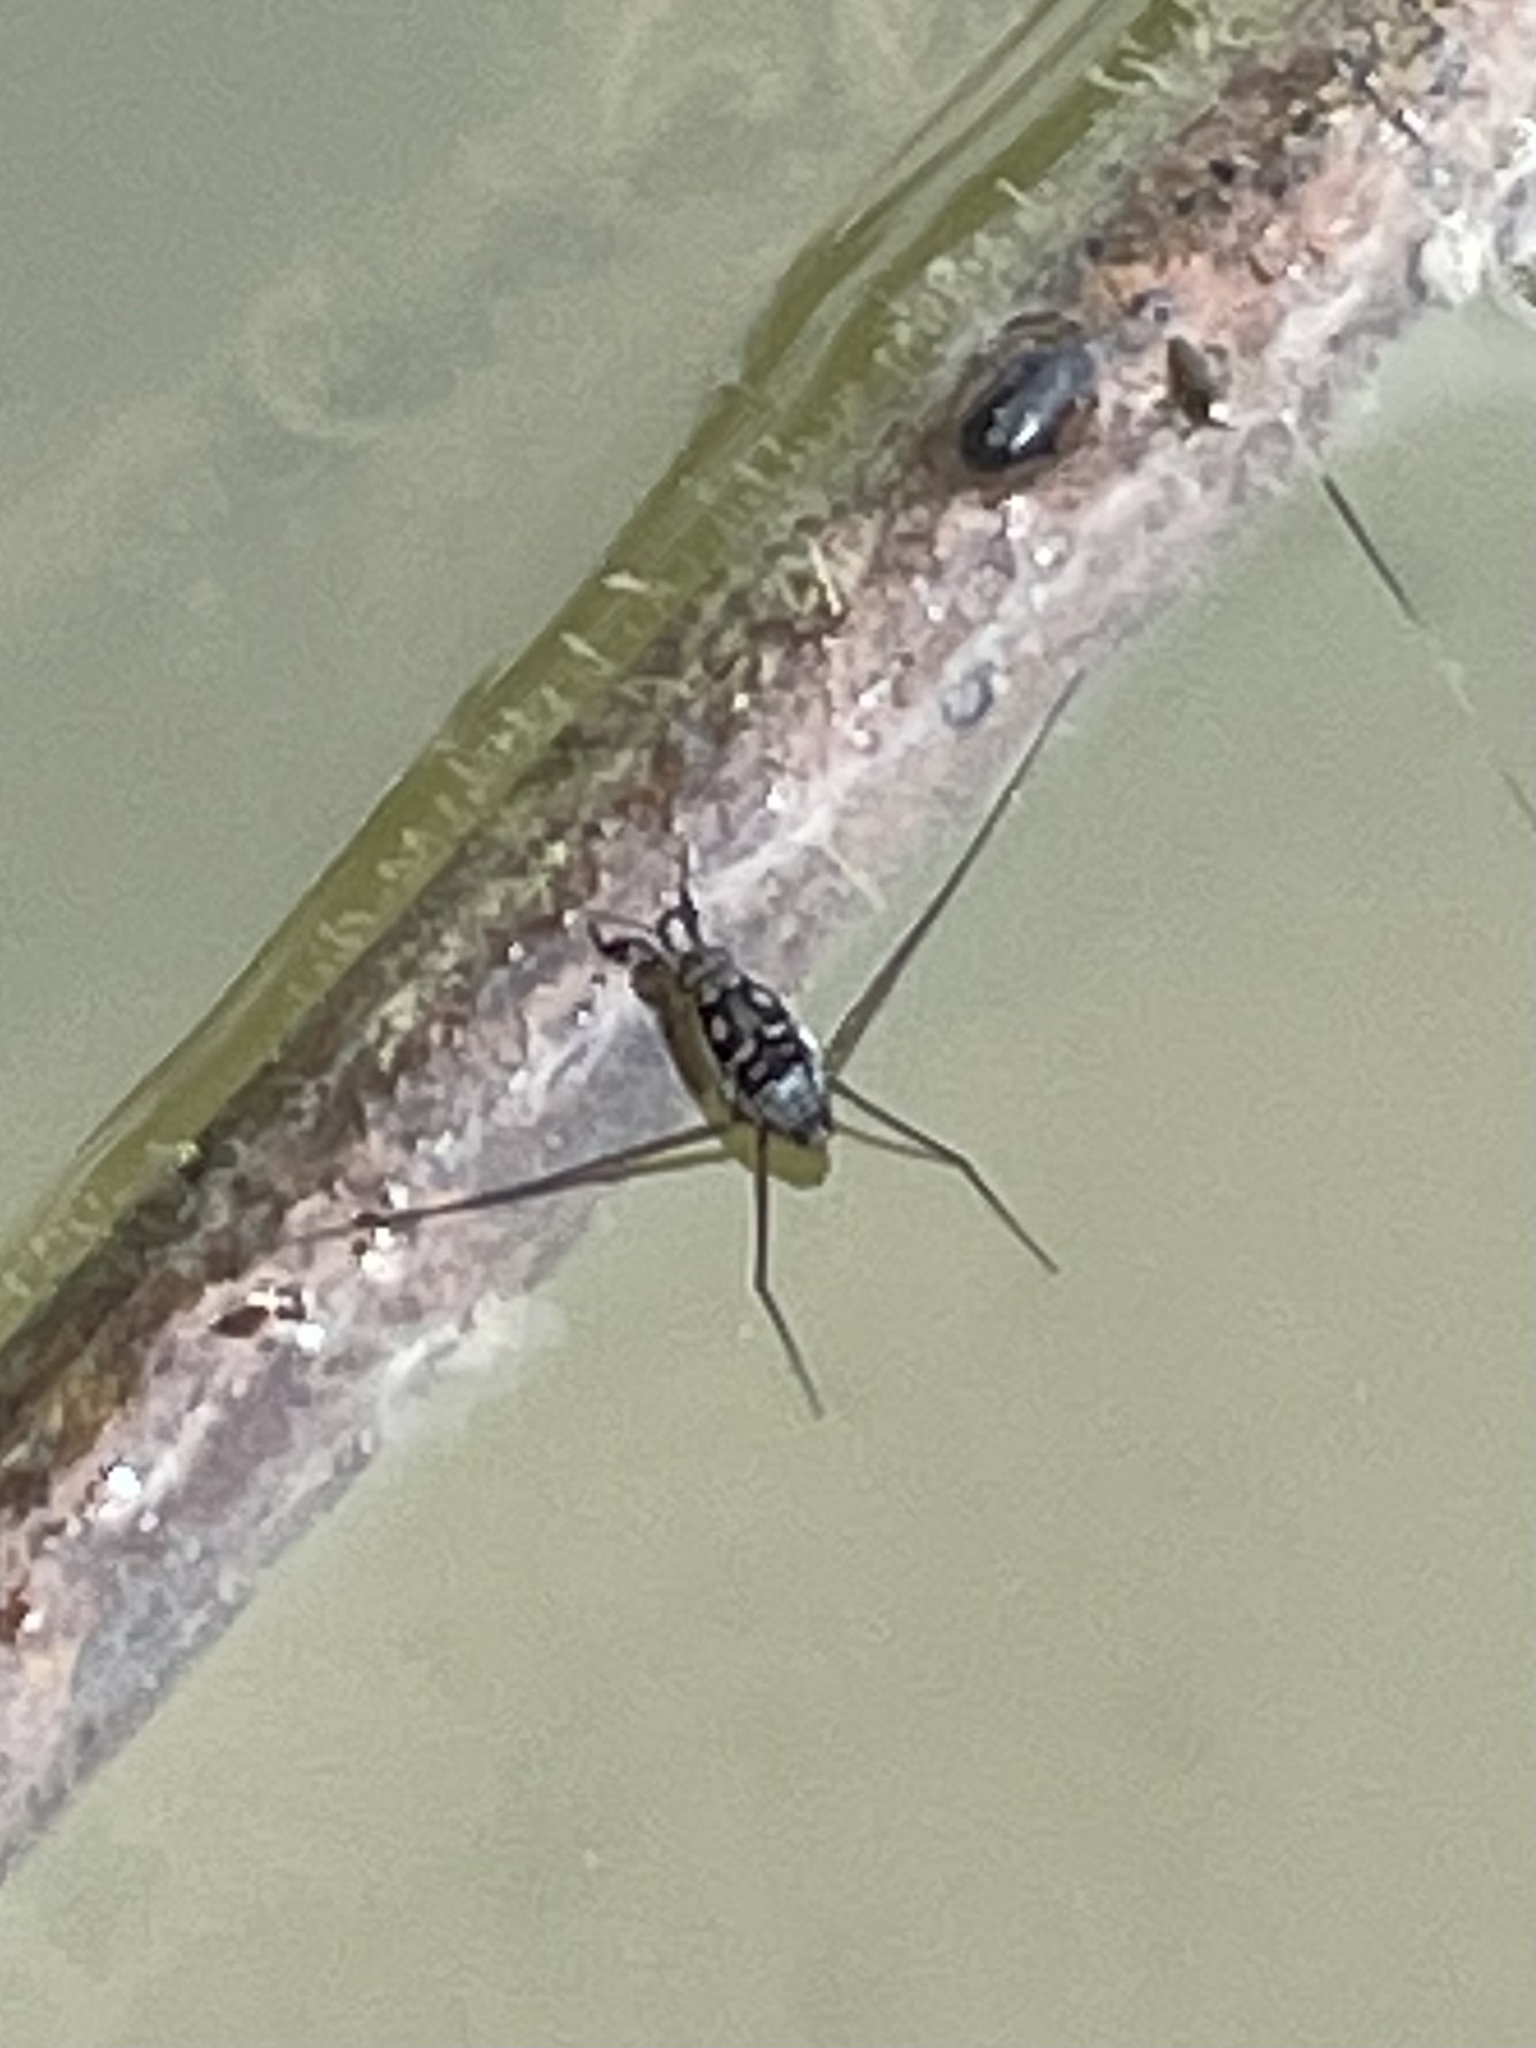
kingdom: Animalia
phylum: Arthropoda
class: Insecta
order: Hemiptera
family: Gerridae
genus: Trepobates
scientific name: Trepobates
